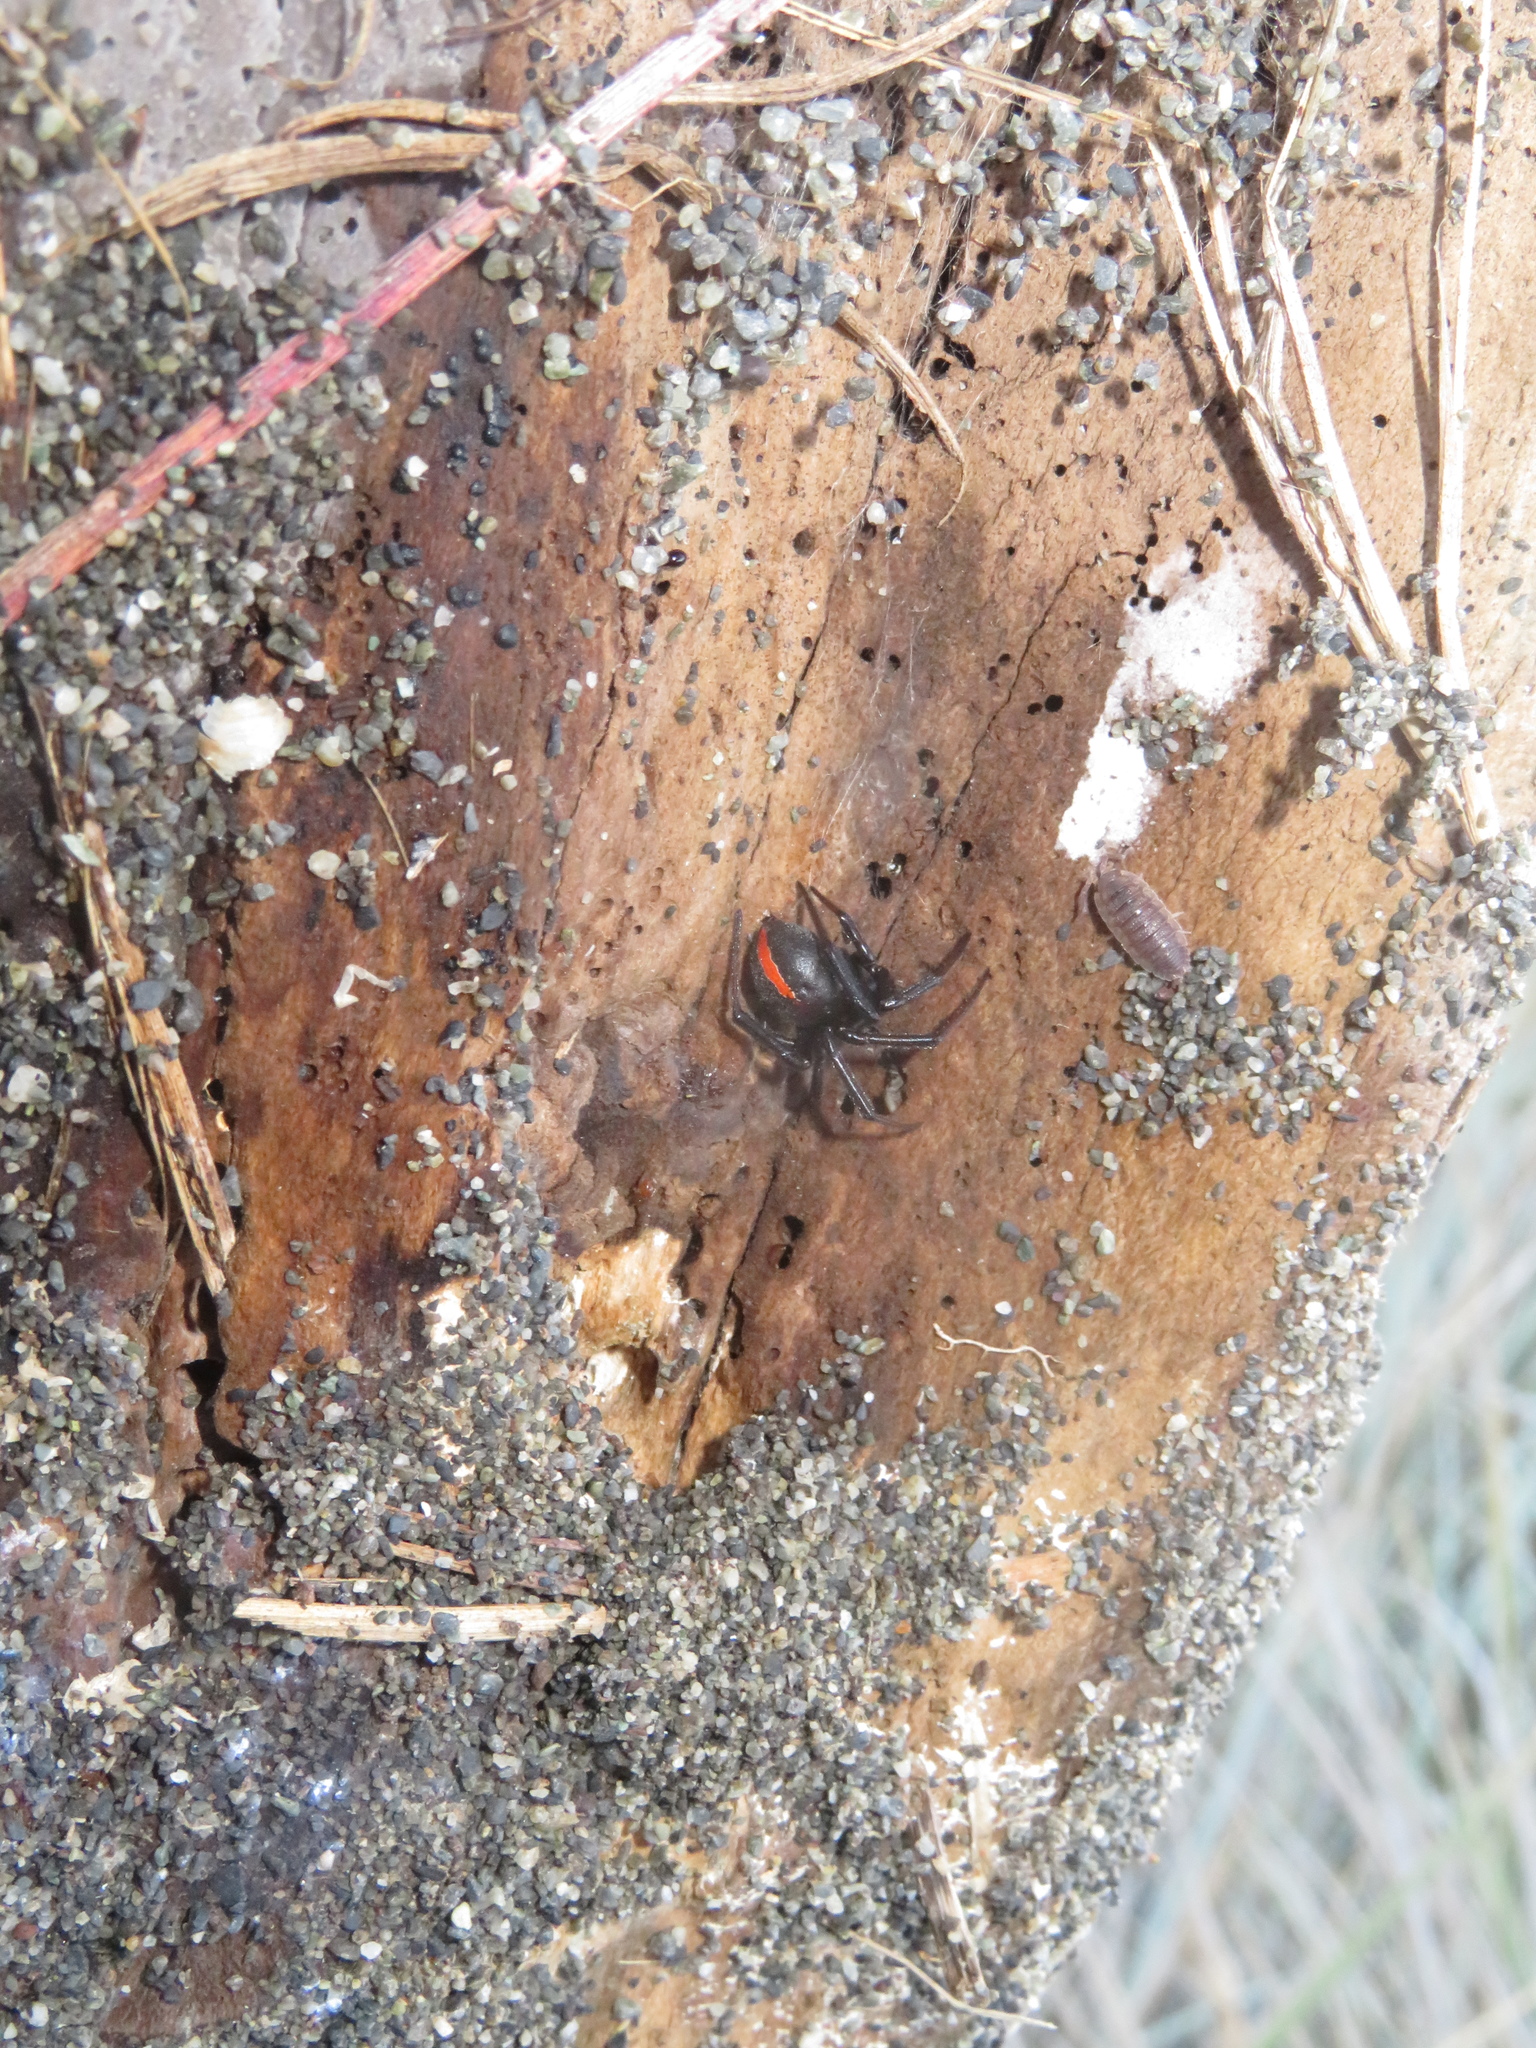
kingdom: Animalia
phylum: Arthropoda
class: Arachnida
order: Araneae
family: Theridiidae
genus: Latrodectus
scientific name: Latrodectus katipo
